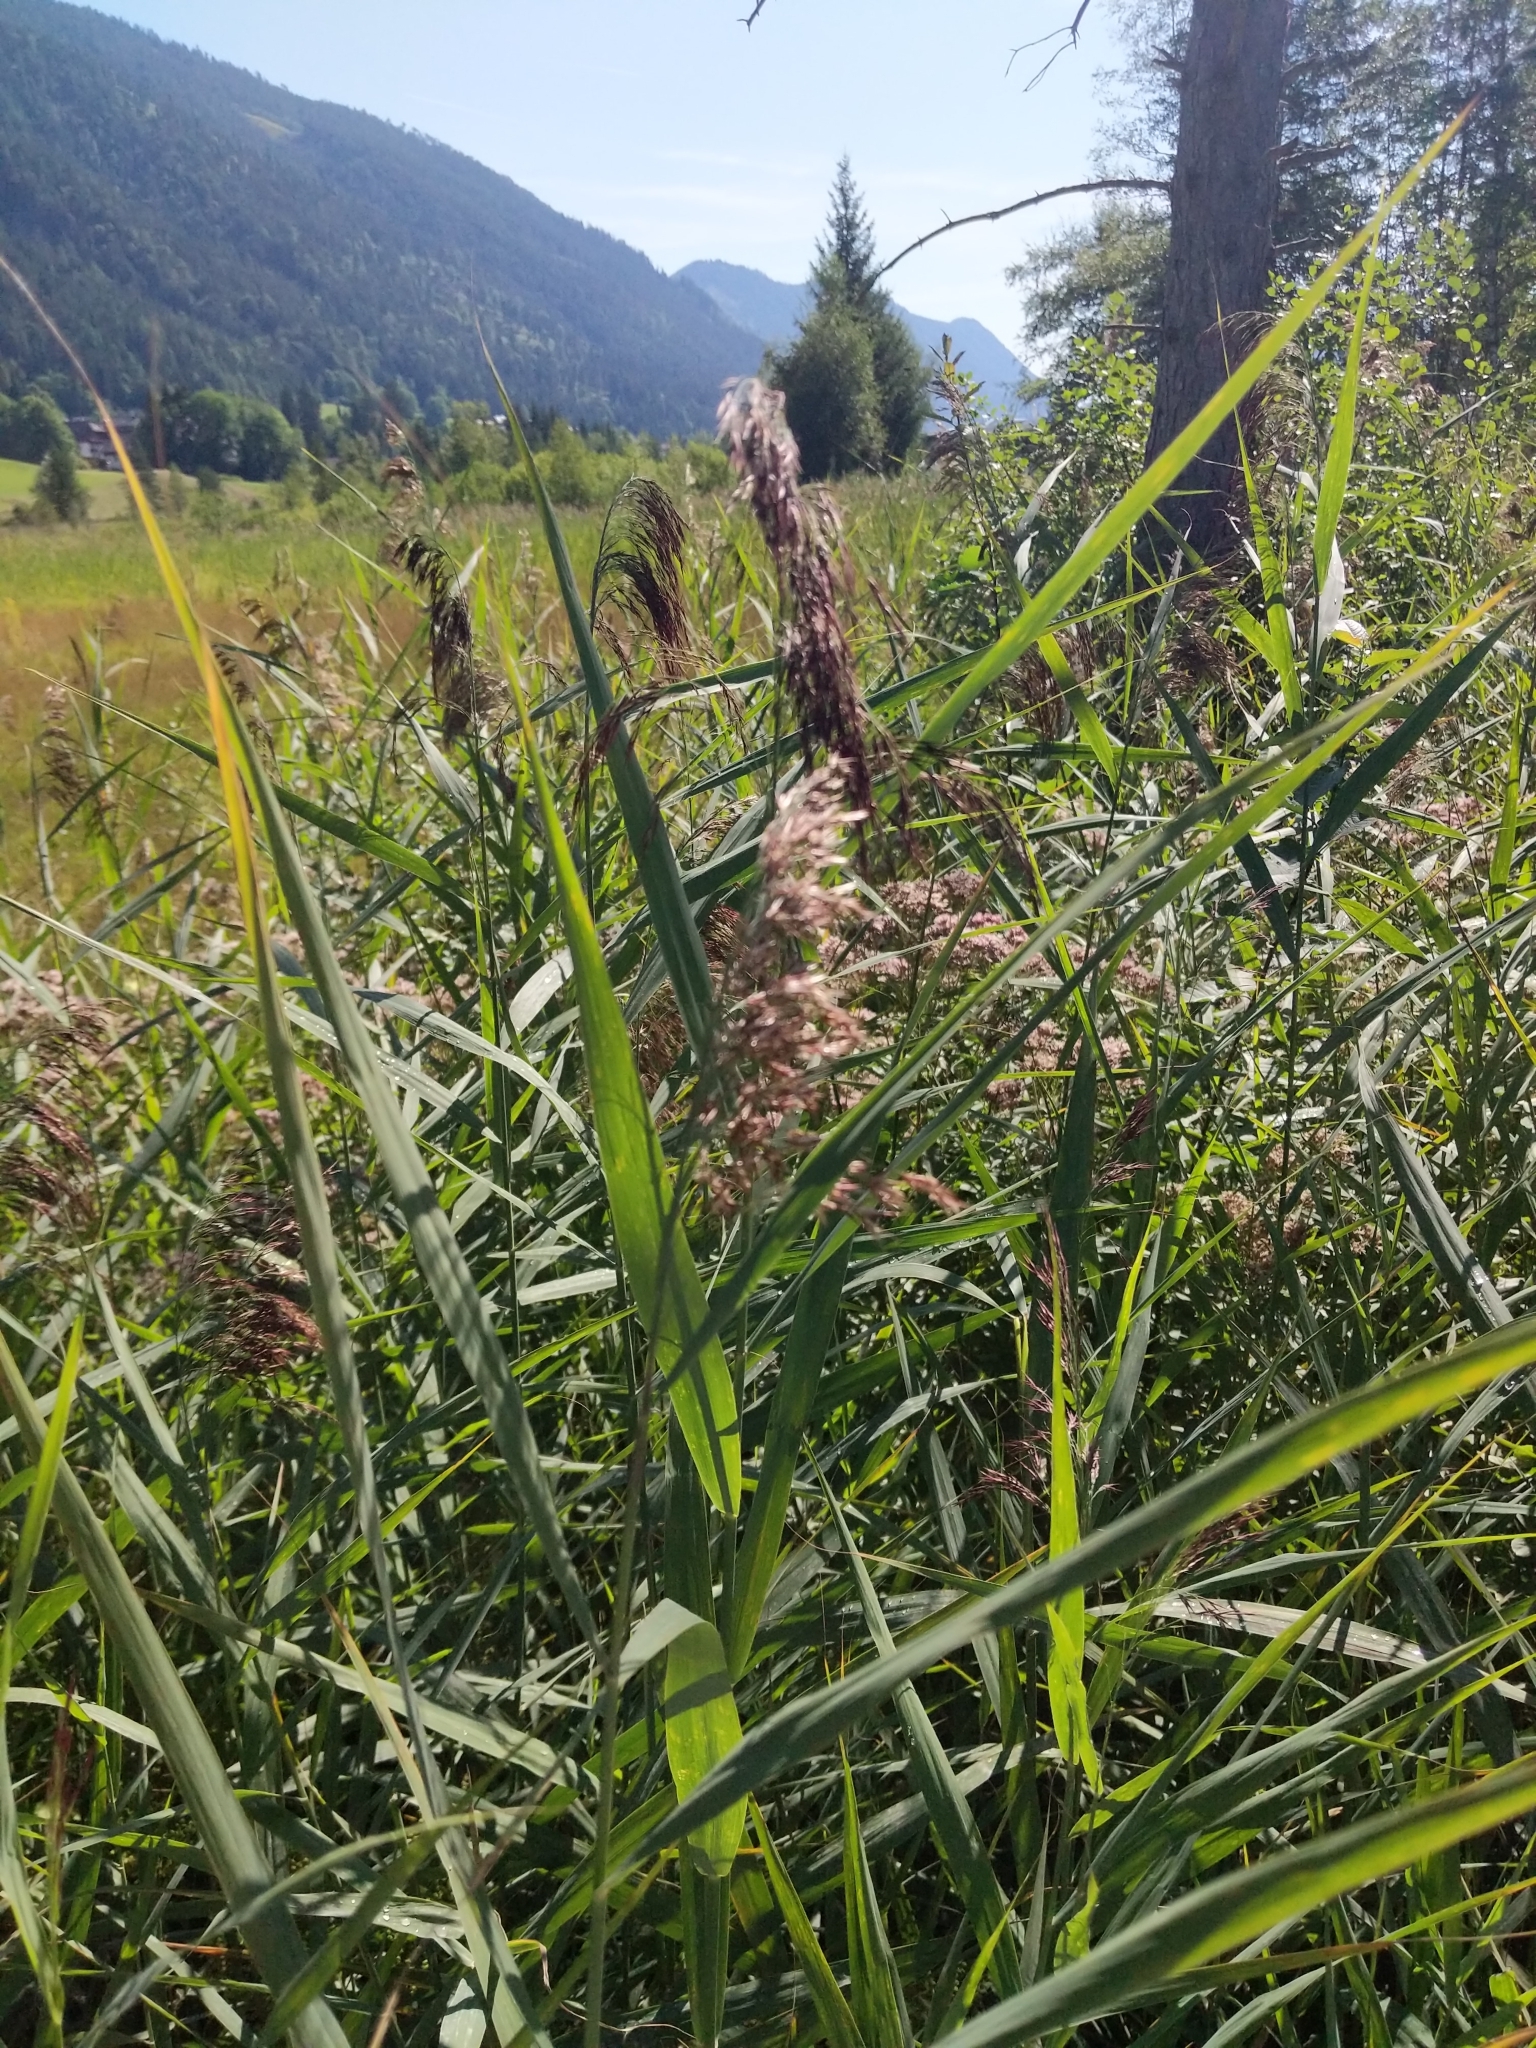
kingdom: Plantae
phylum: Tracheophyta
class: Liliopsida
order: Poales
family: Poaceae
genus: Phragmites
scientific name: Phragmites australis
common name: Common reed
